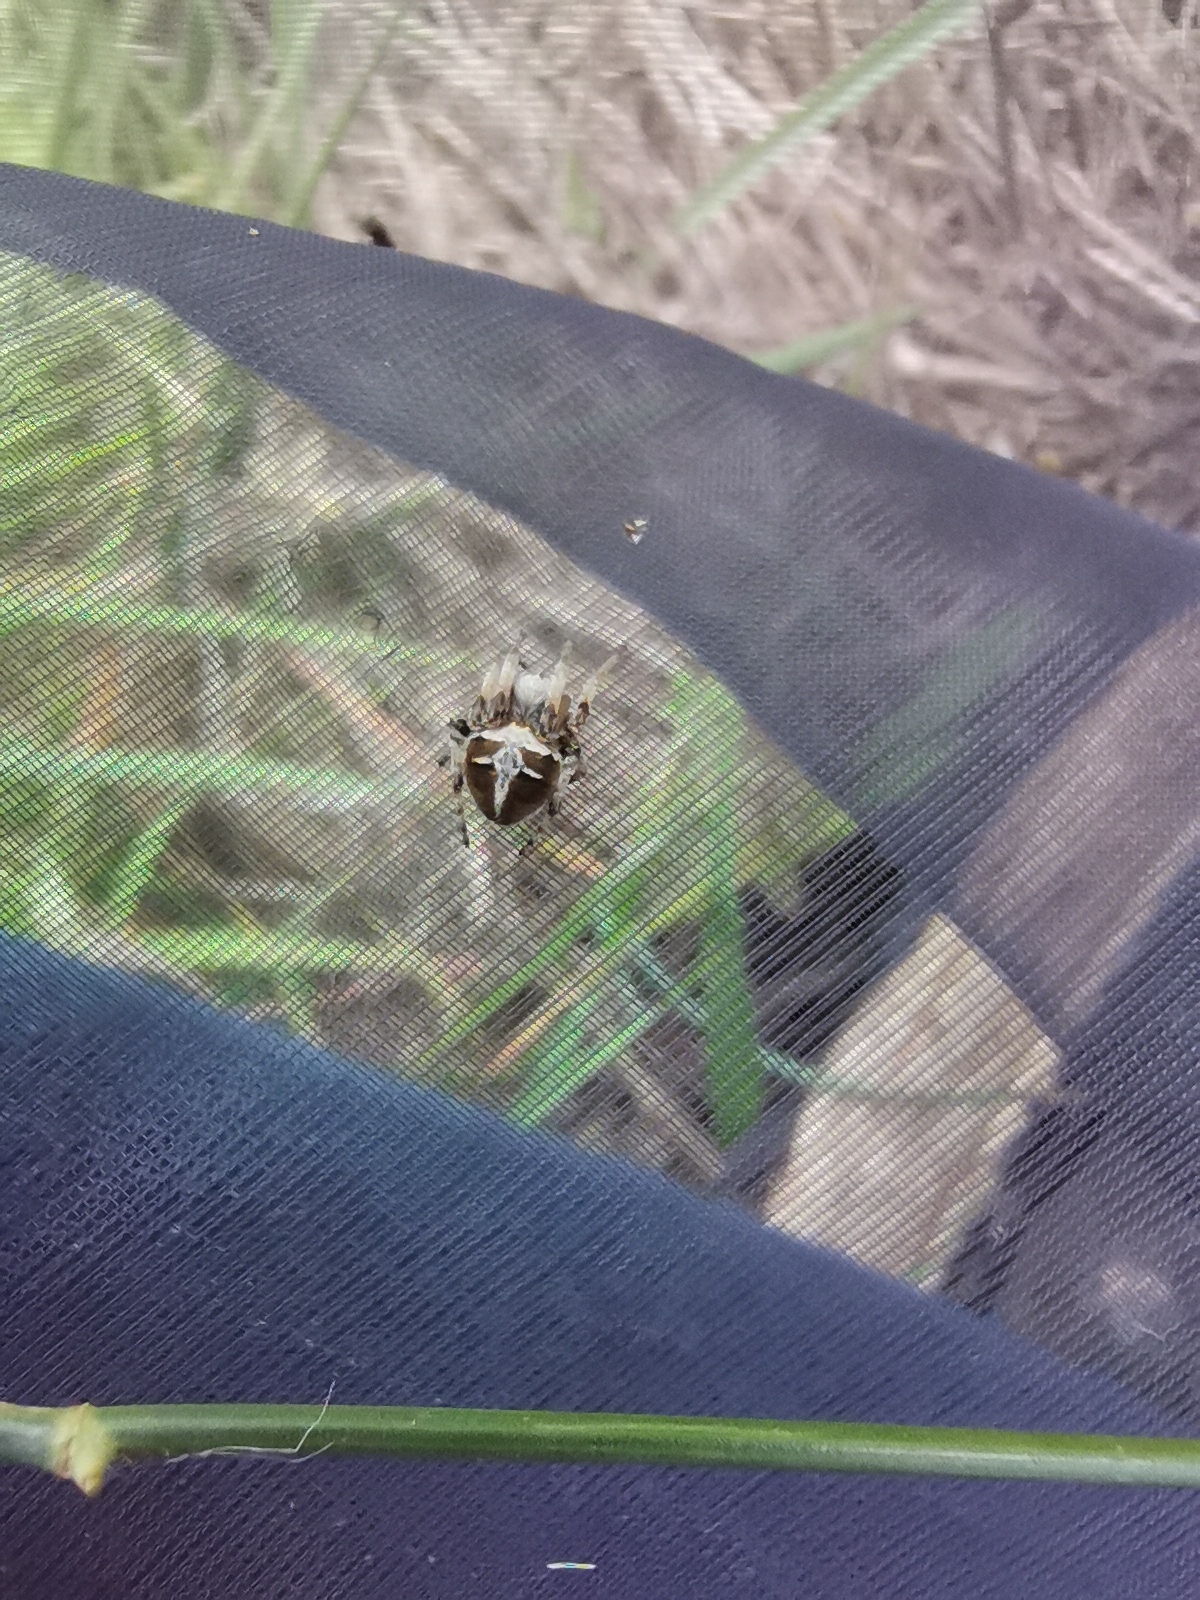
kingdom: Animalia
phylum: Arthropoda
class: Arachnida
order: Araneae
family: Araneidae
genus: Agalenatea
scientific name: Agalenatea redii
